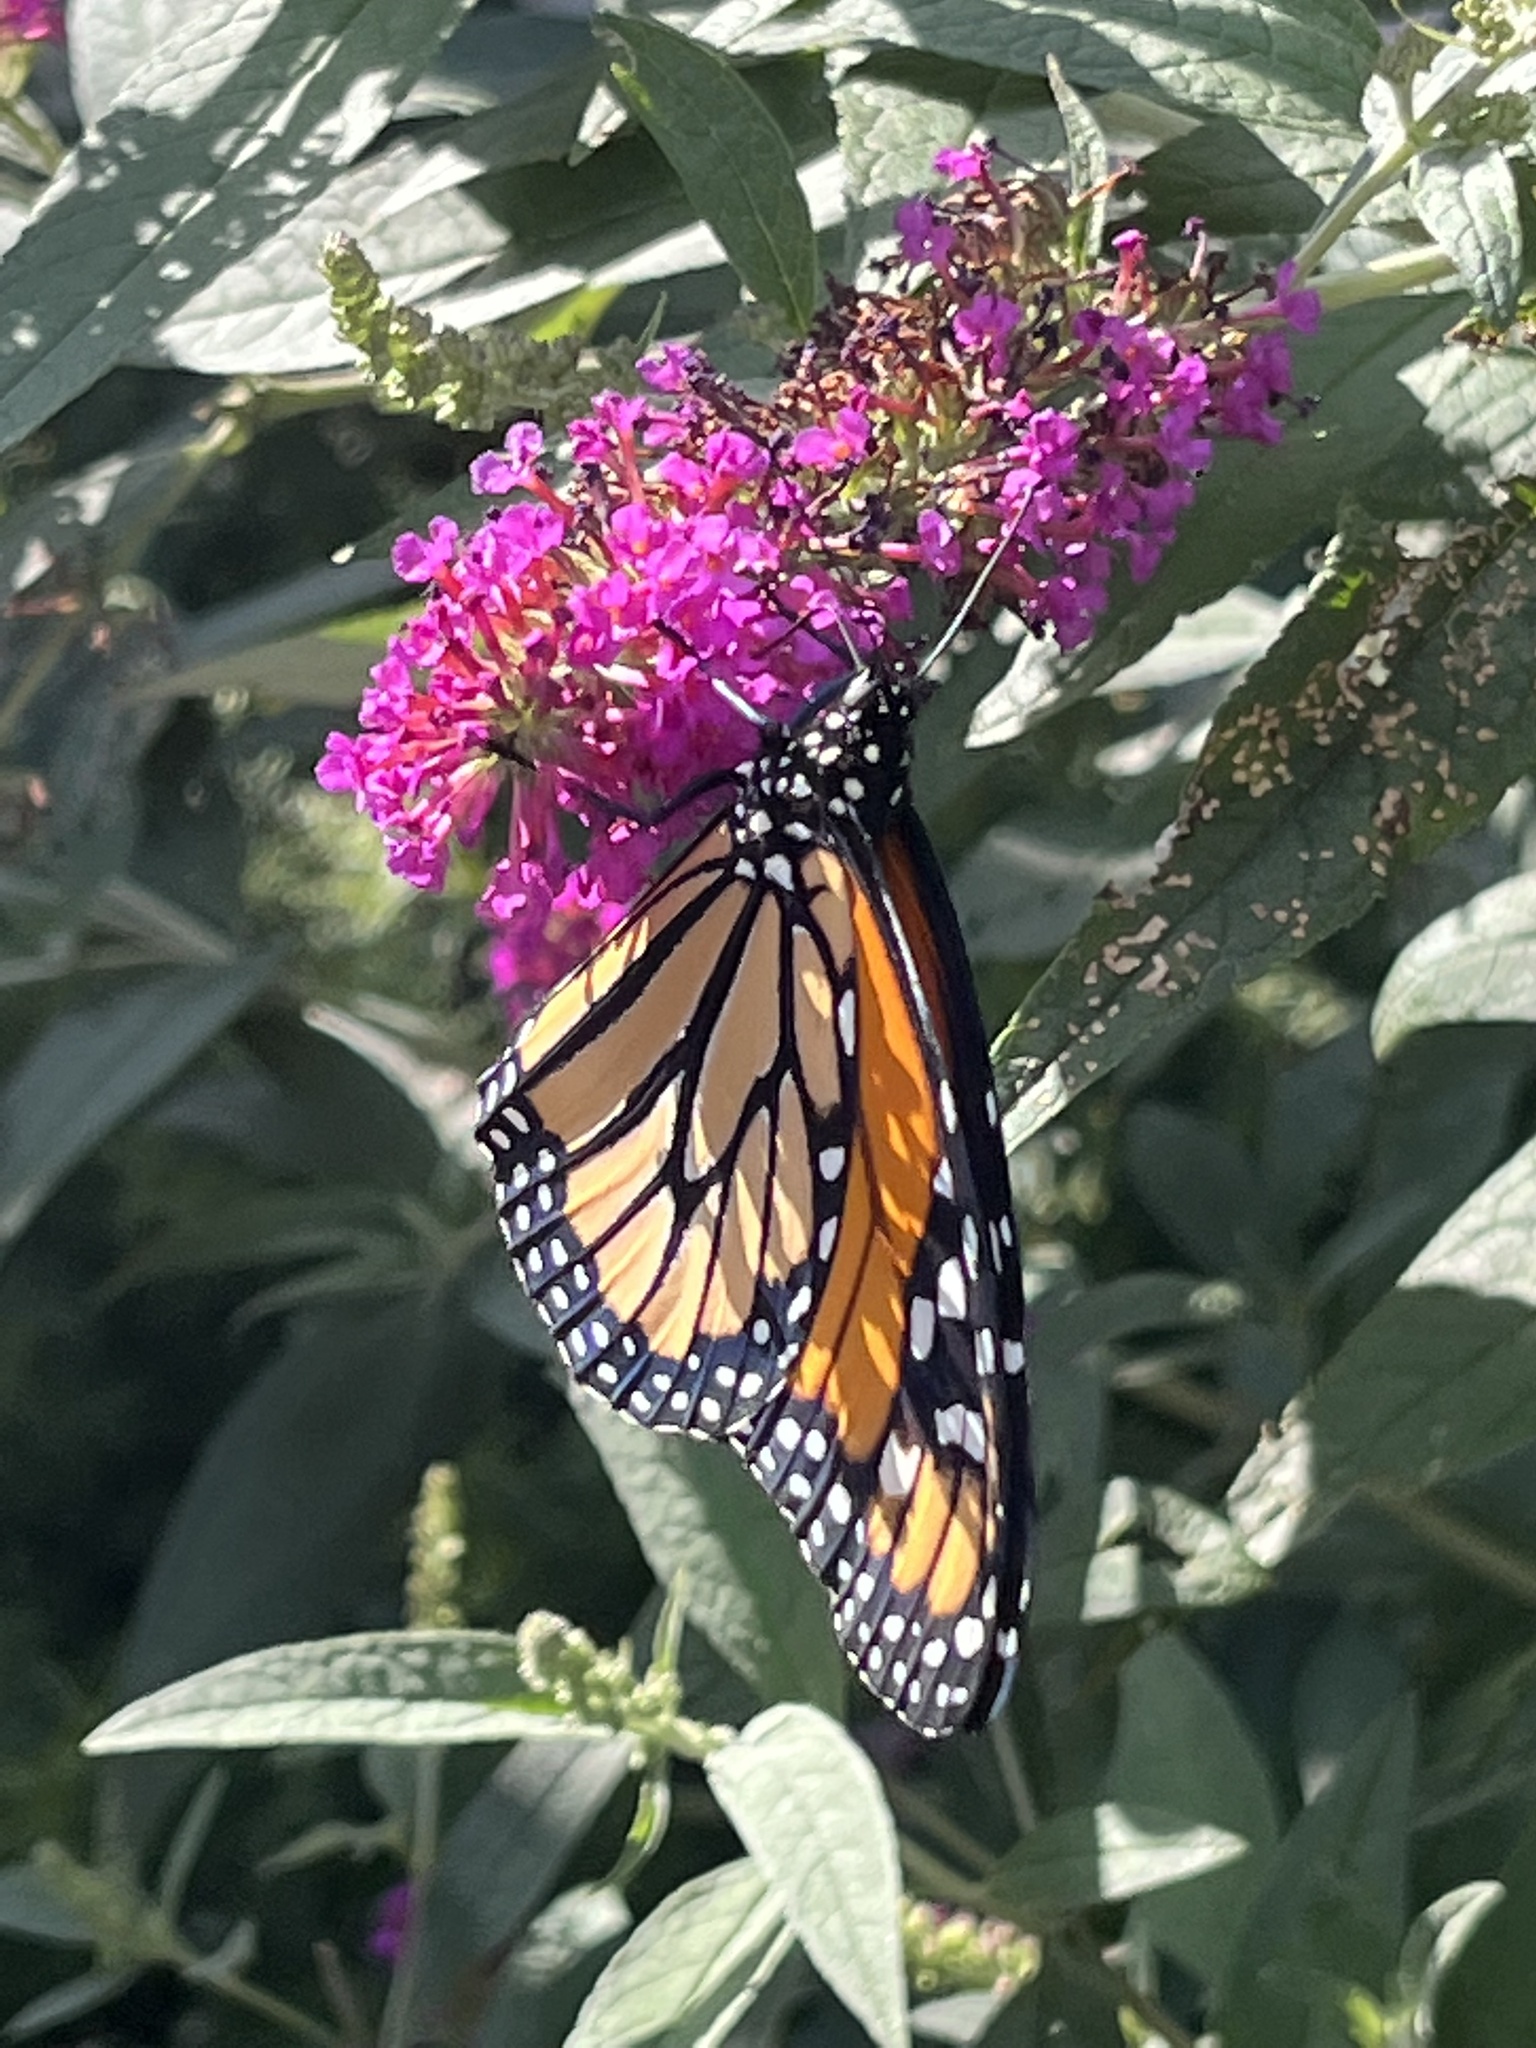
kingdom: Animalia
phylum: Arthropoda
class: Insecta
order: Lepidoptera
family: Nymphalidae
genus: Danaus
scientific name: Danaus plexippus
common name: Monarch
